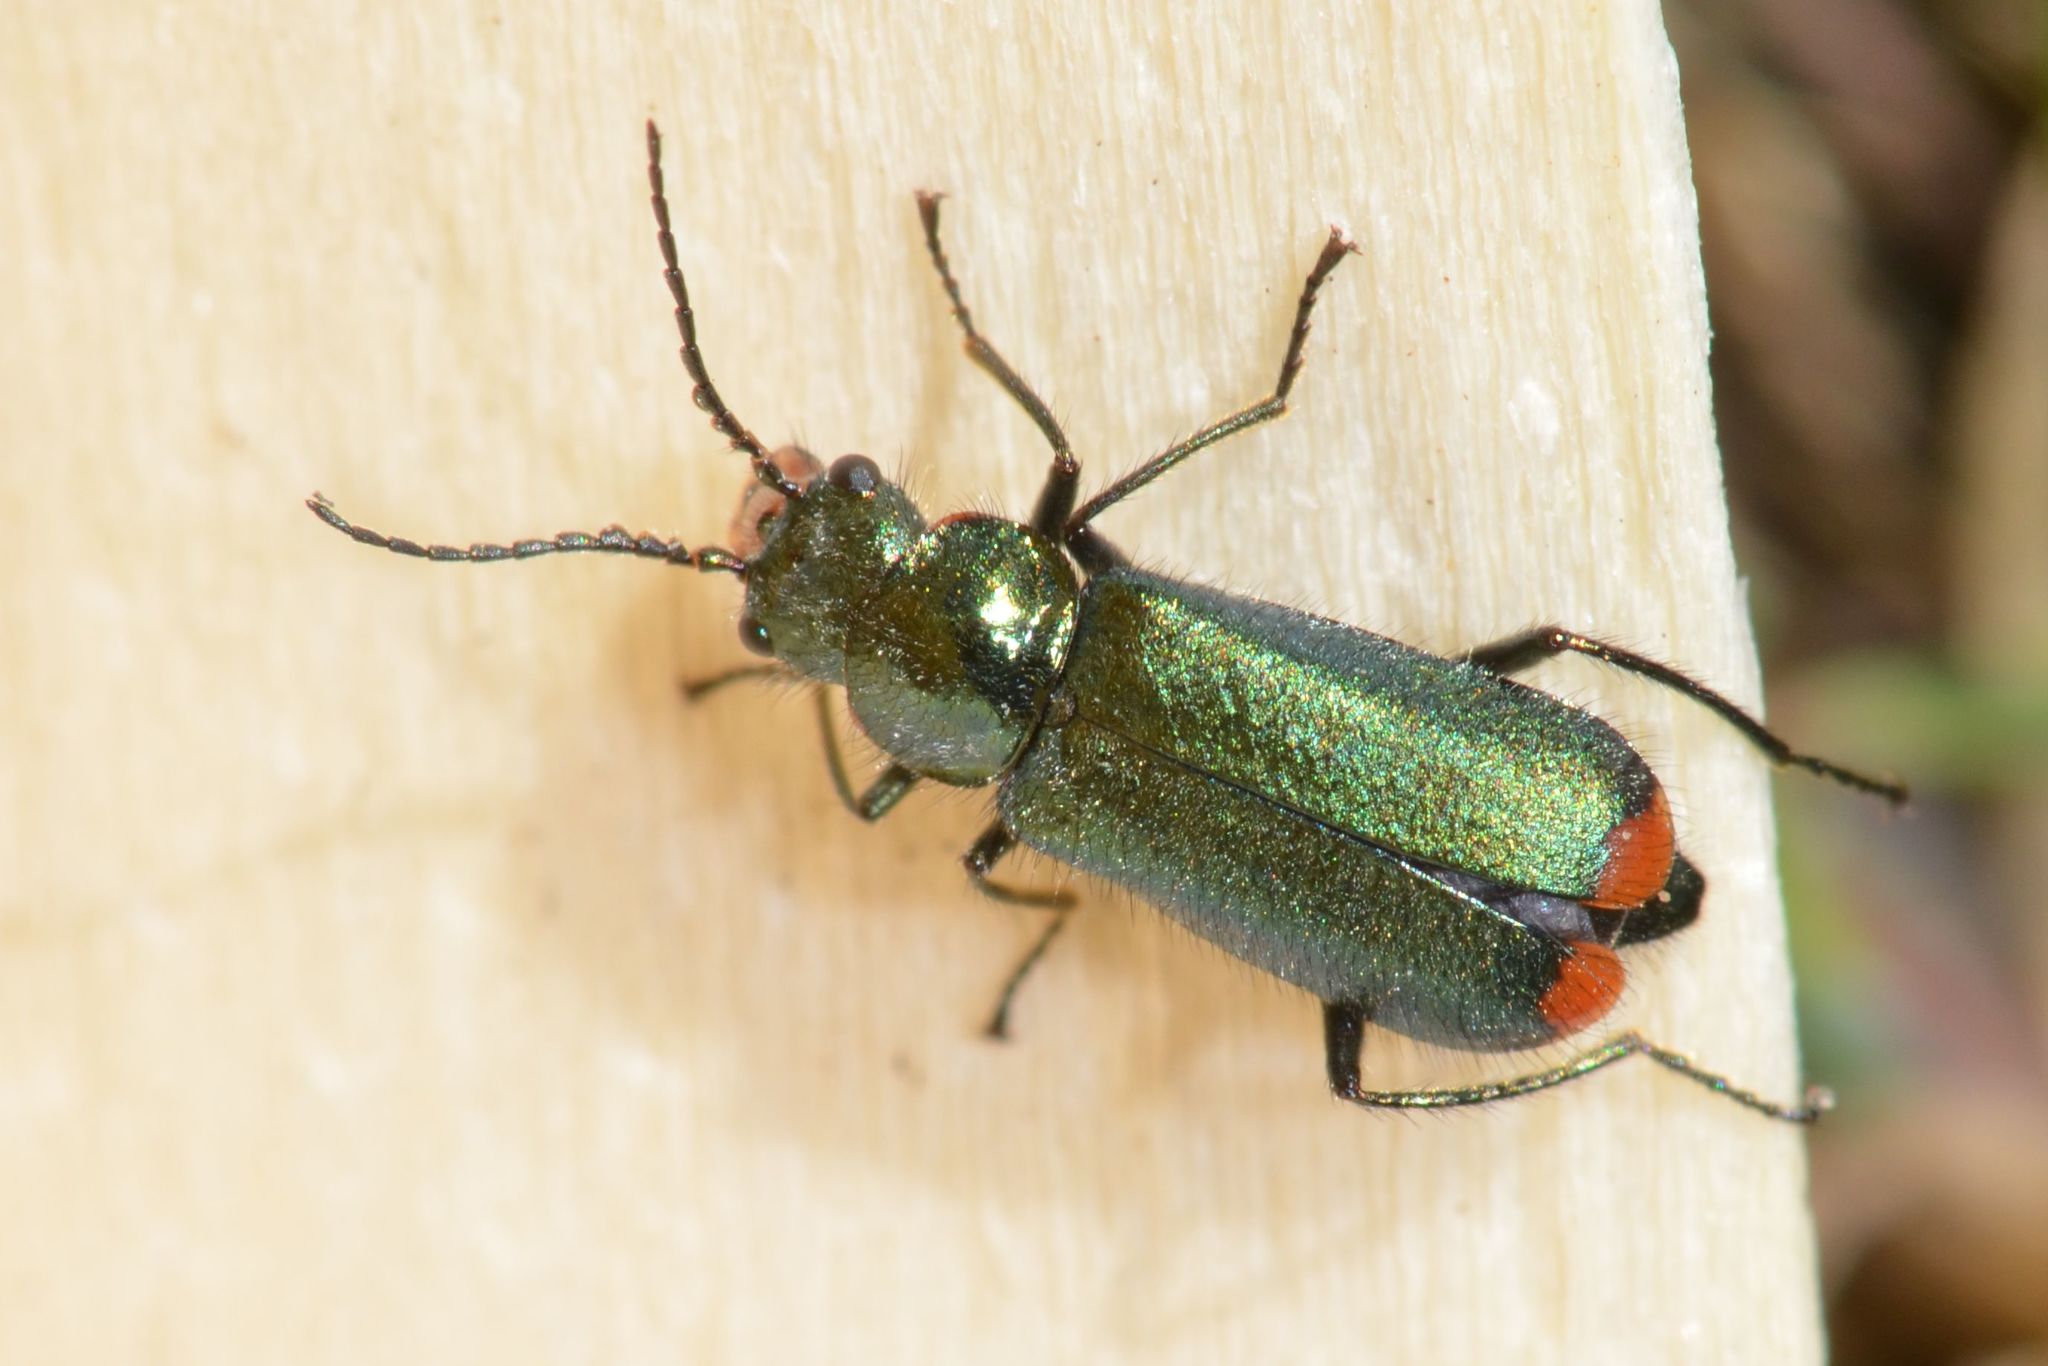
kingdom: Animalia
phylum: Arthropoda
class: Insecta
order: Coleoptera
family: Melyridae
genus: Malachius
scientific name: Malachius bipustulatus
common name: Malachite beetle
